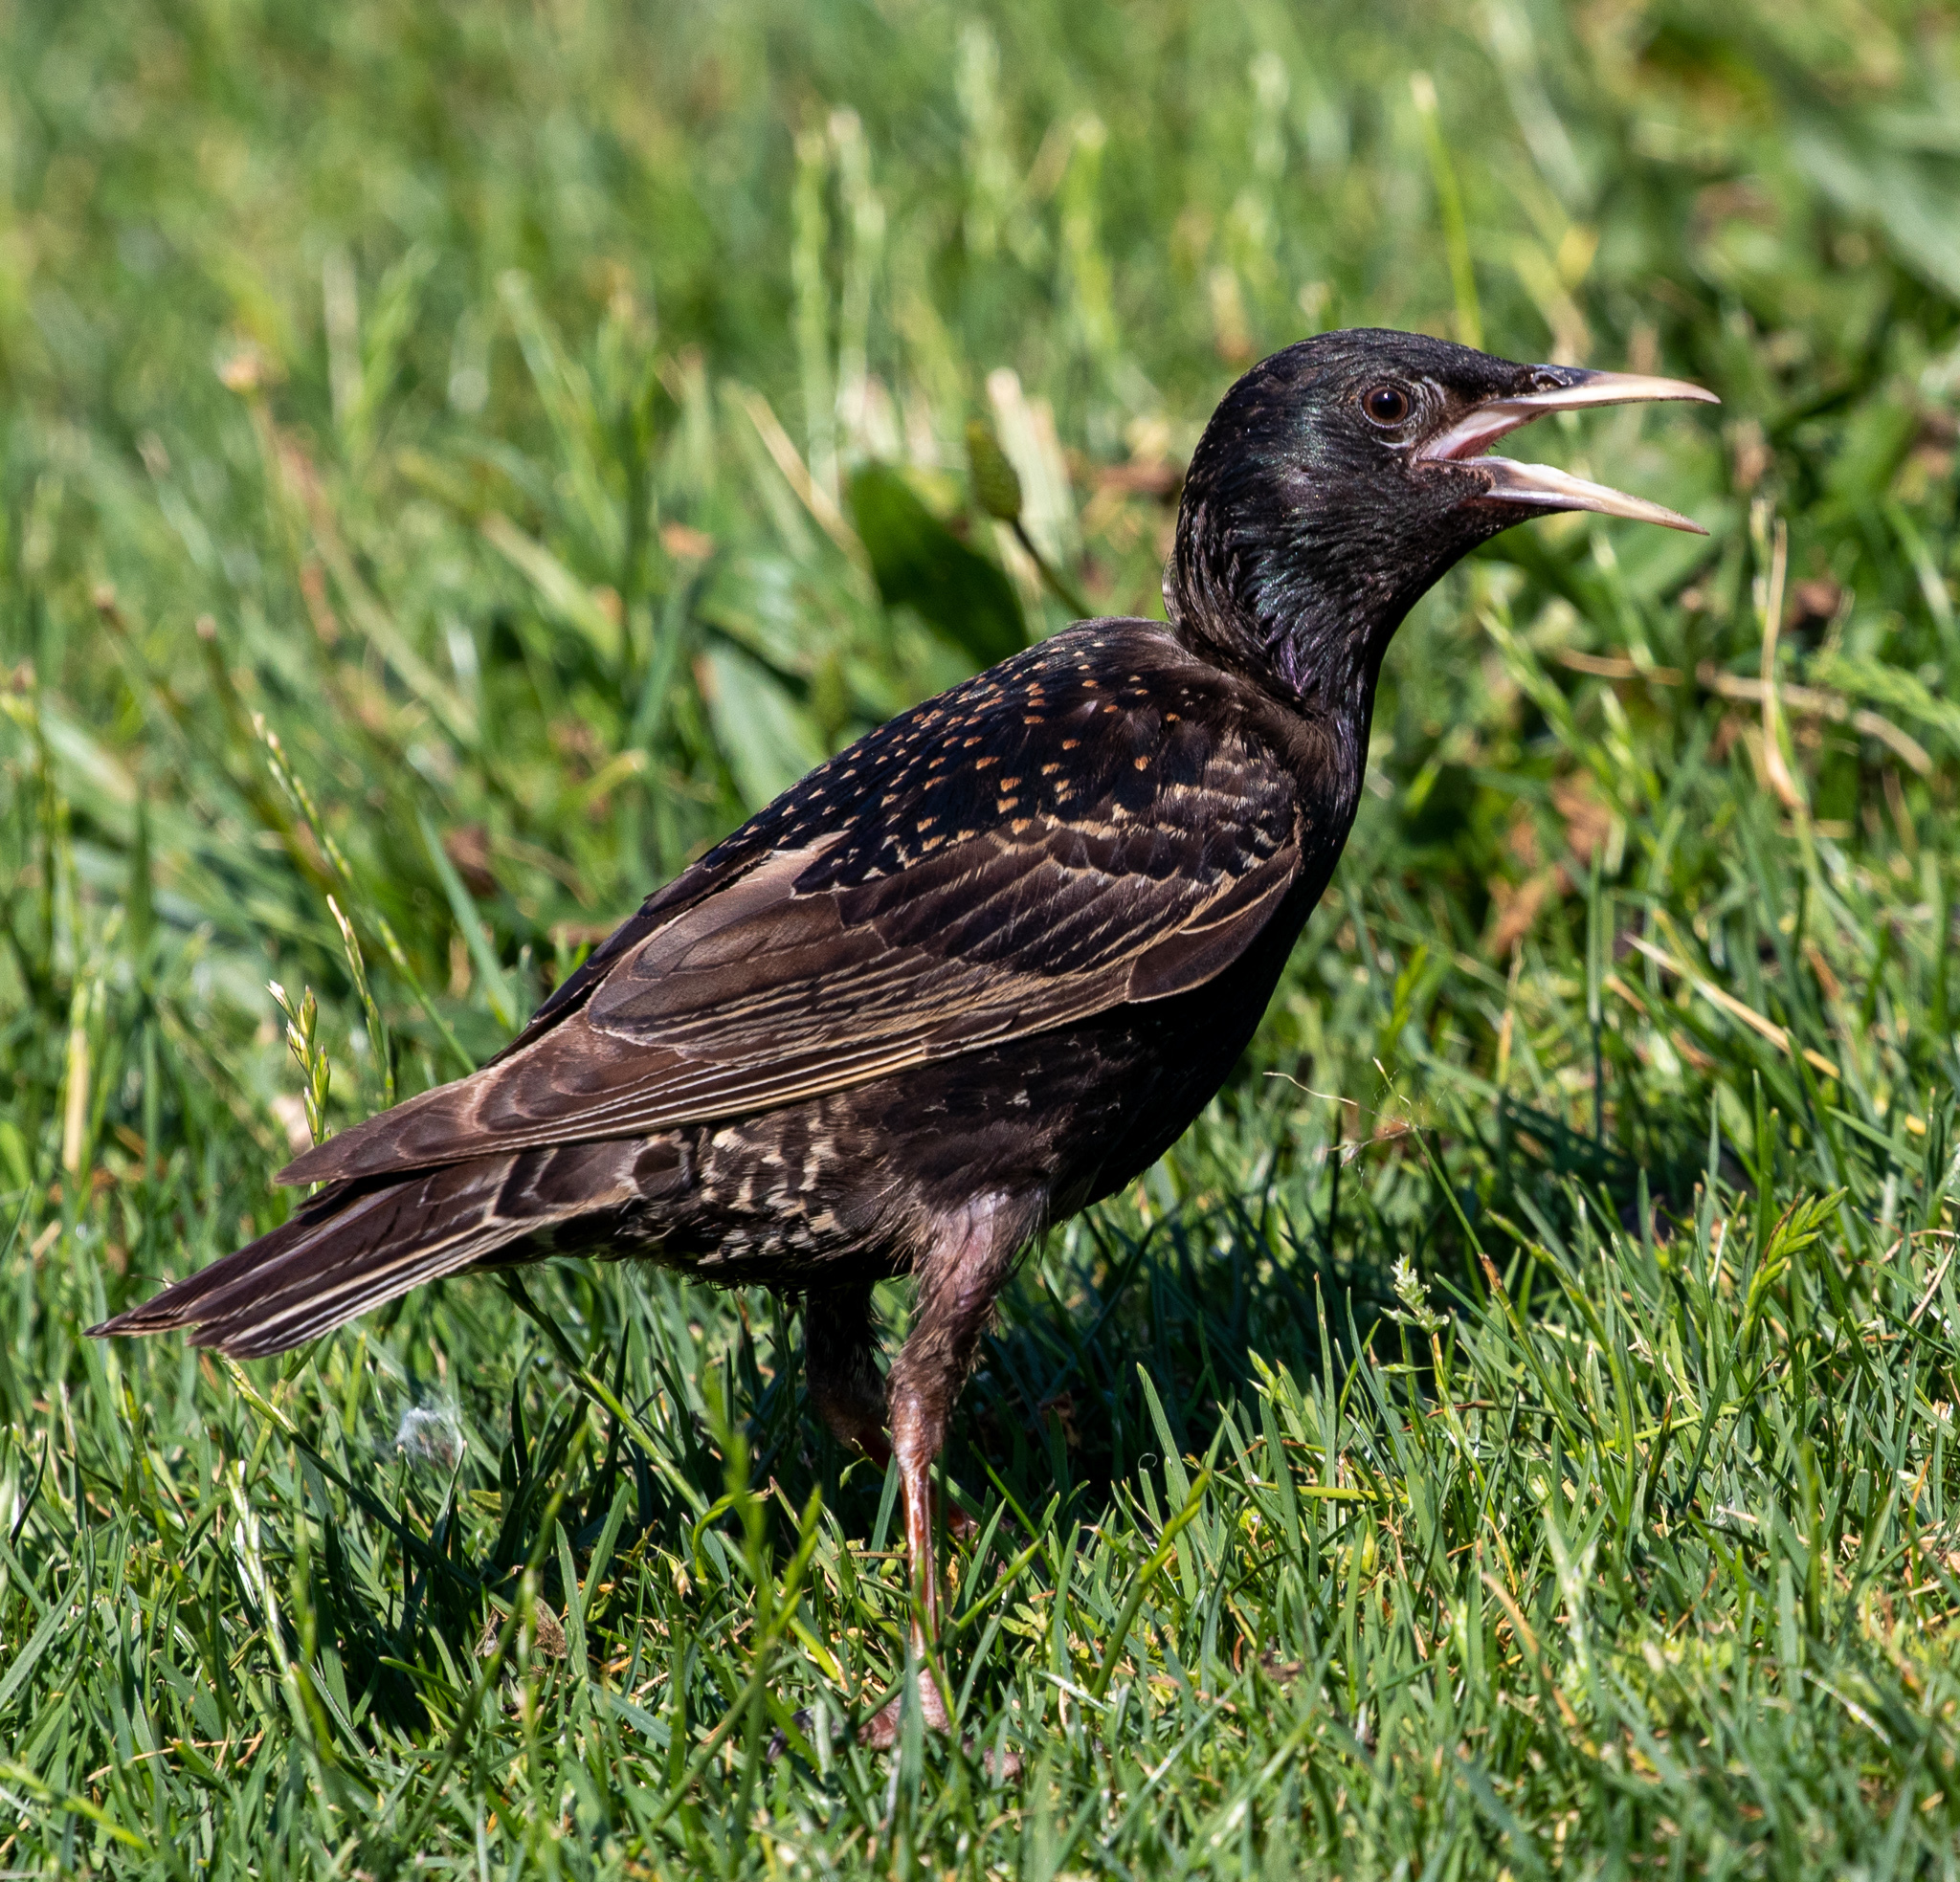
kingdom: Animalia
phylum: Chordata
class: Aves
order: Passeriformes
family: Sturnidae
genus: Sturnus
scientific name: Sturnus vulgaris
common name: Common starling
